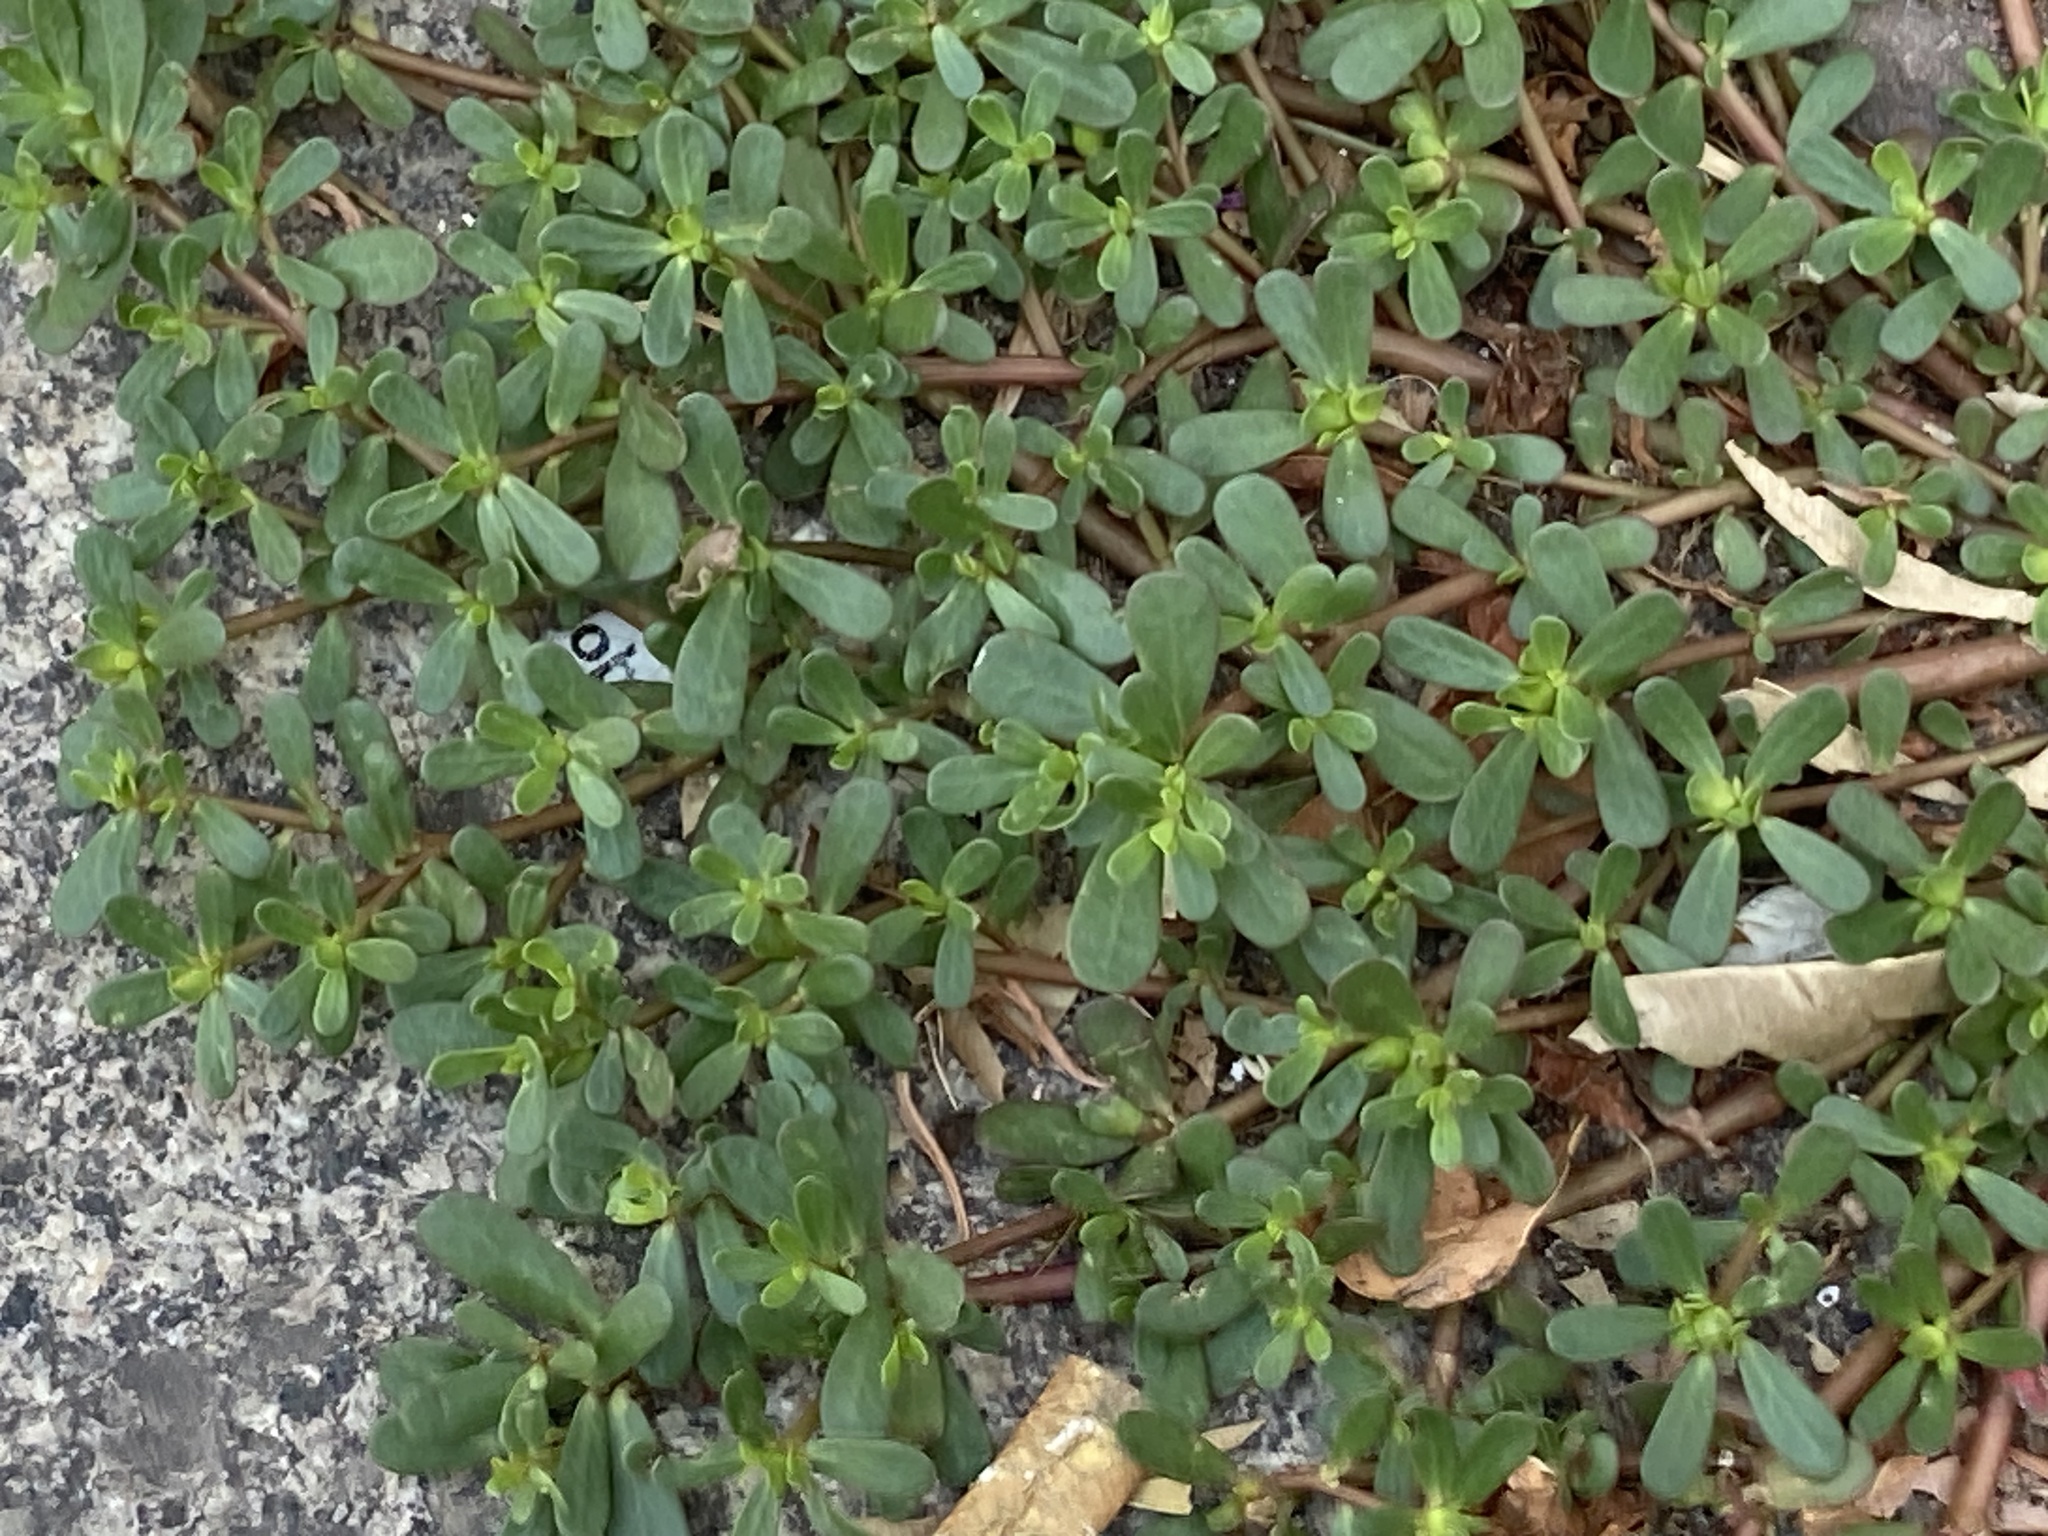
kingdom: Plantae
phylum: Tracheophyta
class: Magnoliopsida
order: Caryophyllales
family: Portulacaceae
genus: Portulaca
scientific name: Portulaca oleracea
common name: Common purslane
